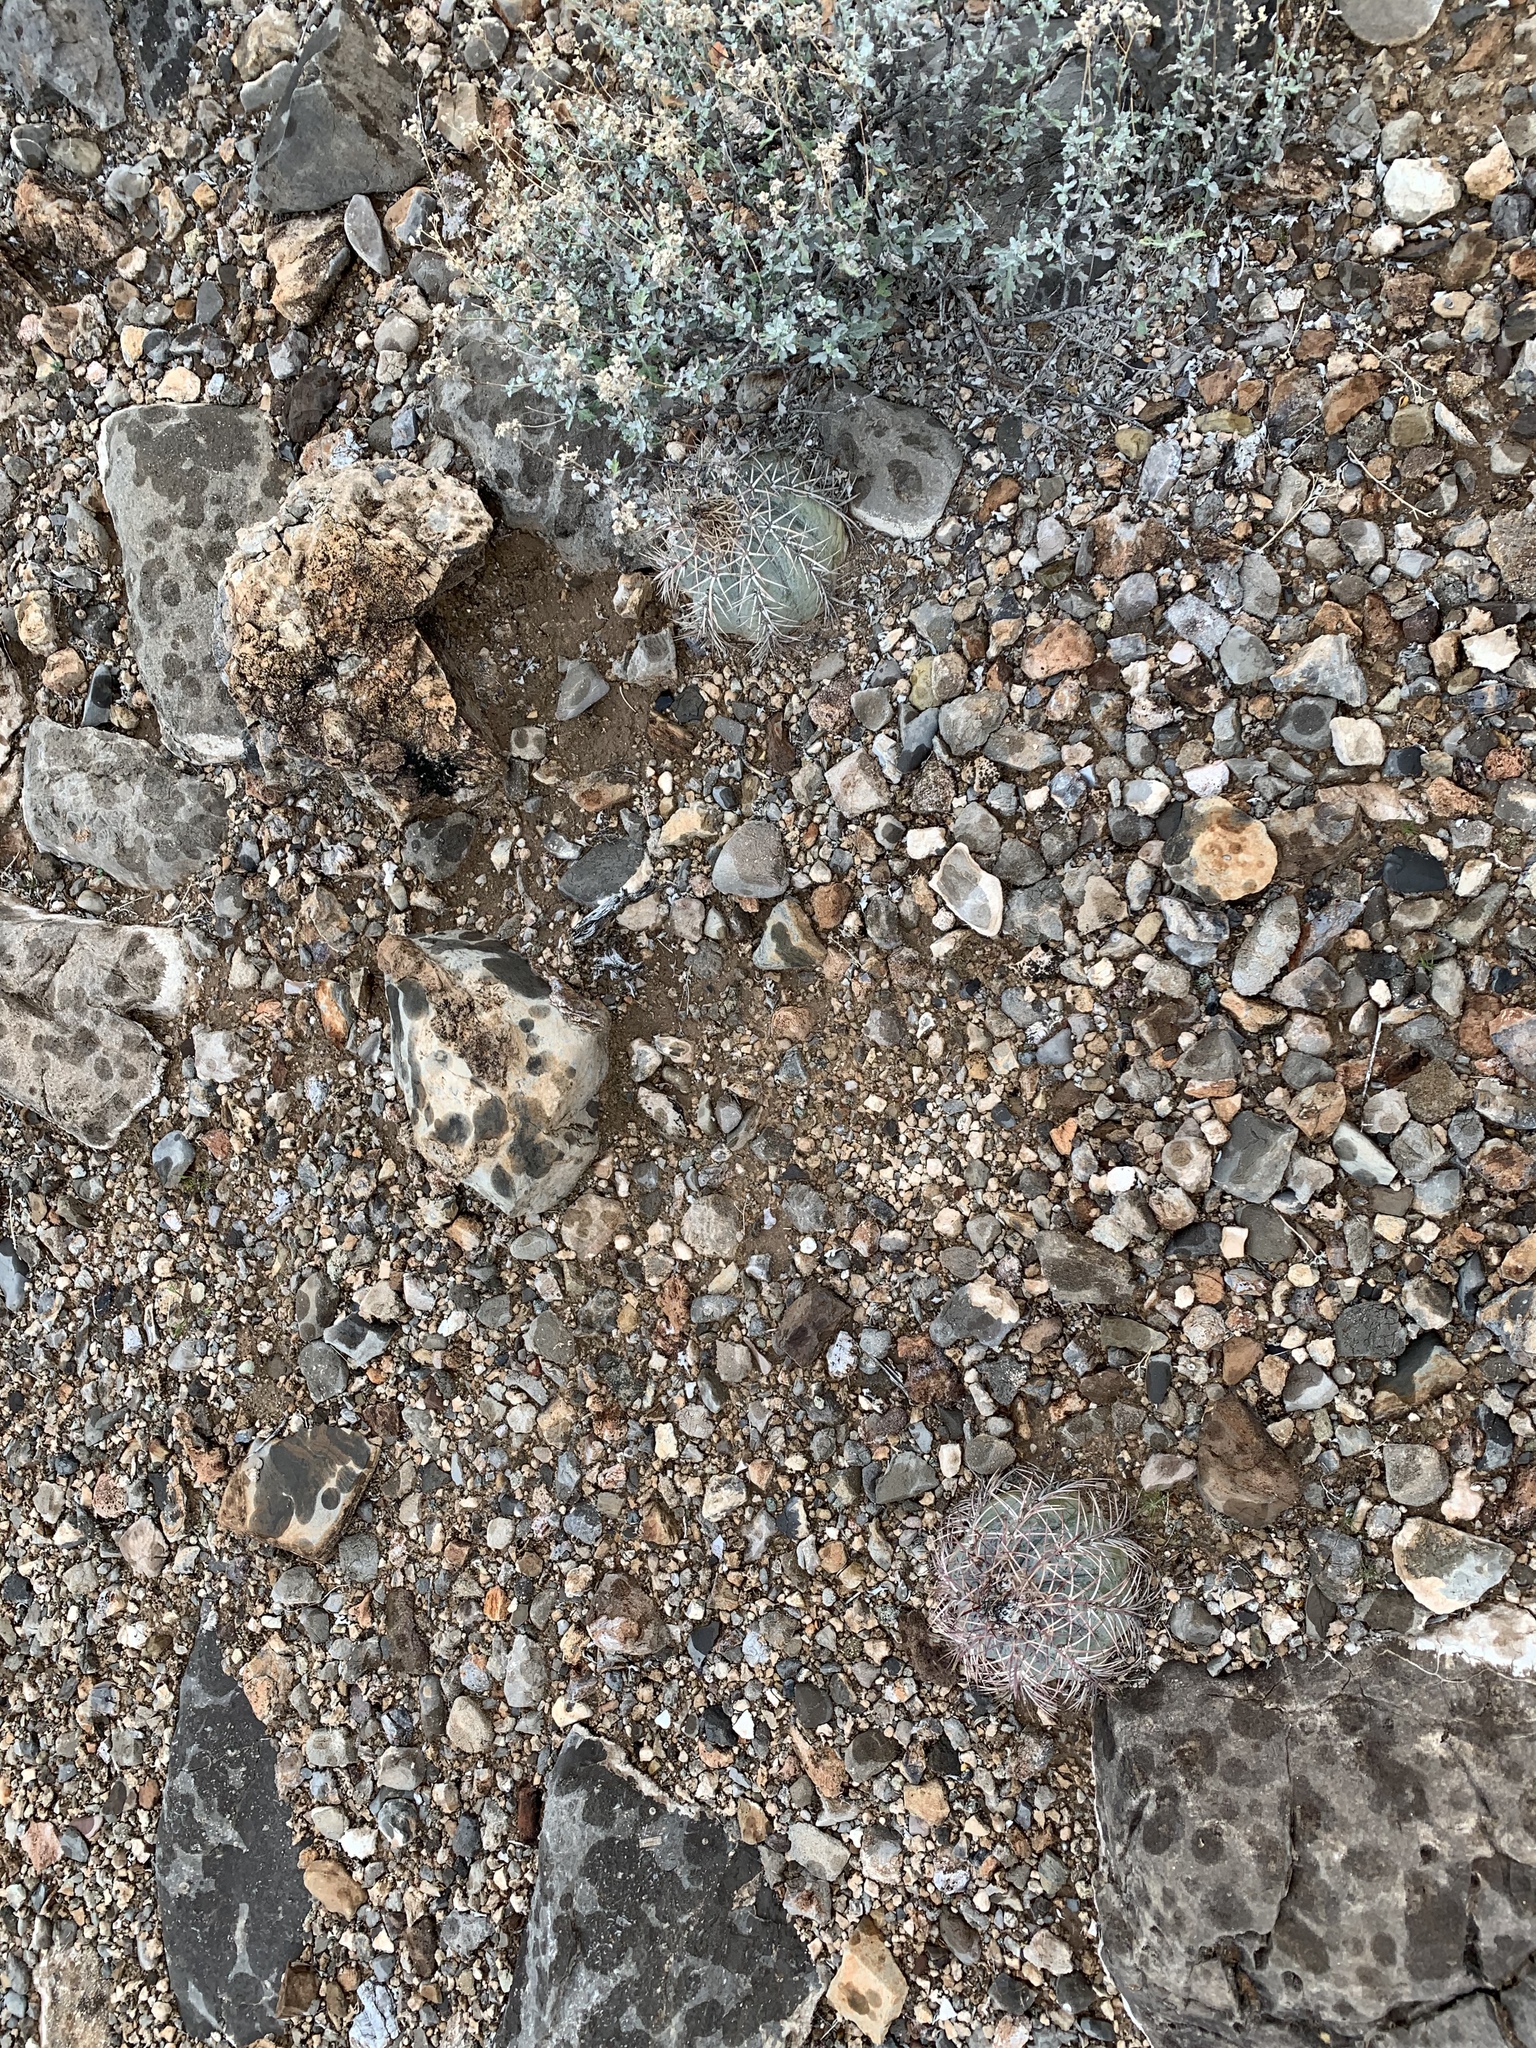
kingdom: Plantae
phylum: Tracheophyta
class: Magnoliopsida
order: Caryophyllales
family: Cactaceae
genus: Echinocactus
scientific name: Echinocactus horizonthalonius
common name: Devilshead
